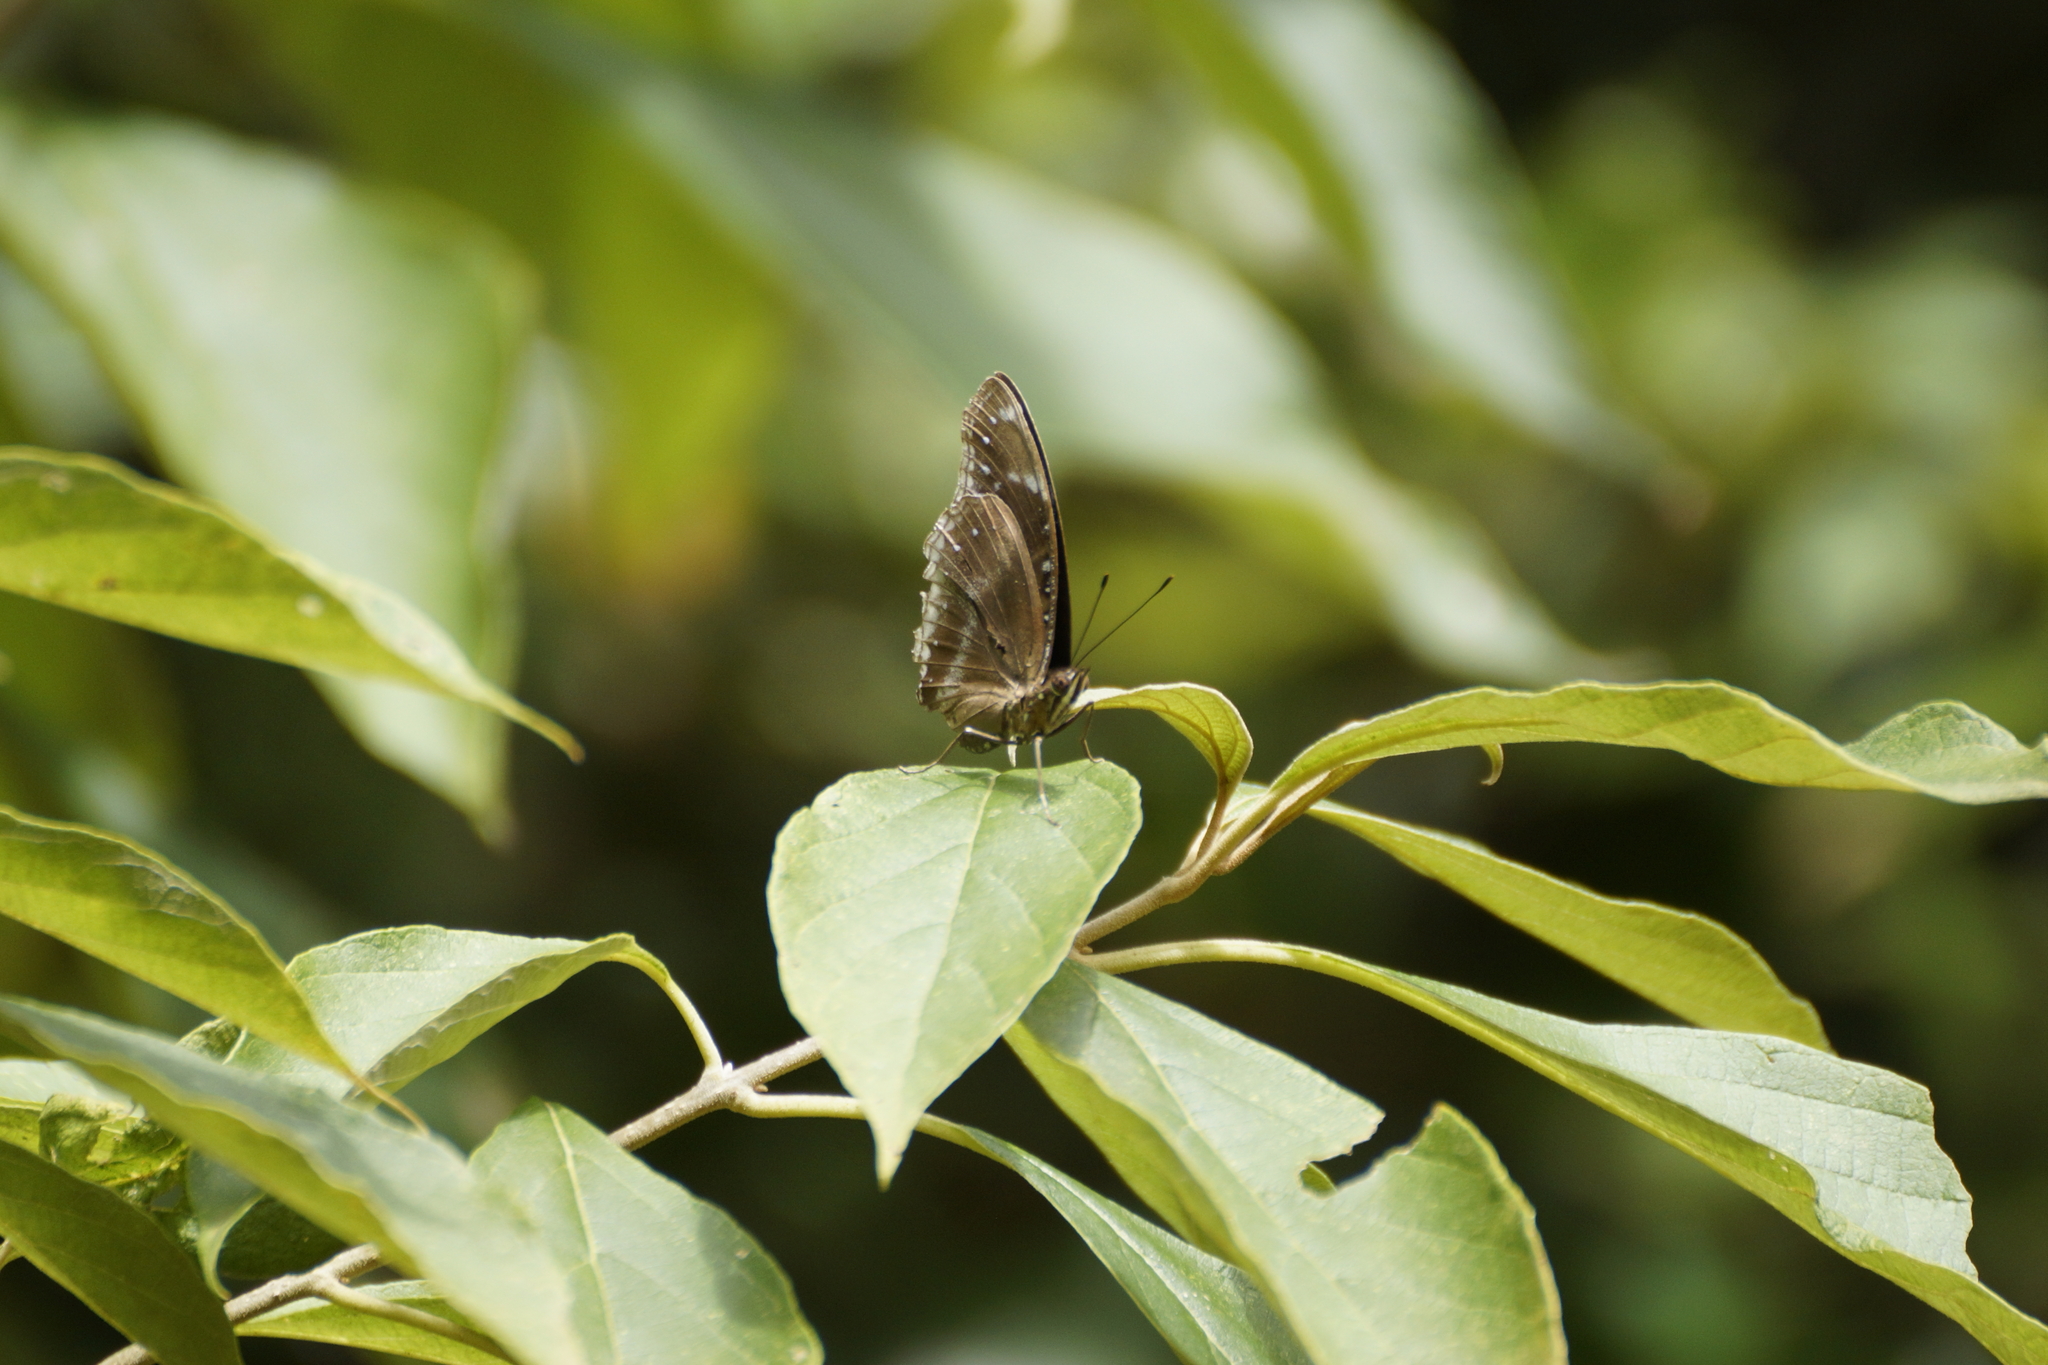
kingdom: Animalia
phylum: Arthropoda
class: Insecta
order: Lepidoptera
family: Nymphalidae
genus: Hypolimnas
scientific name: Hypolimnas alimena
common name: Blue-banded eggfly
